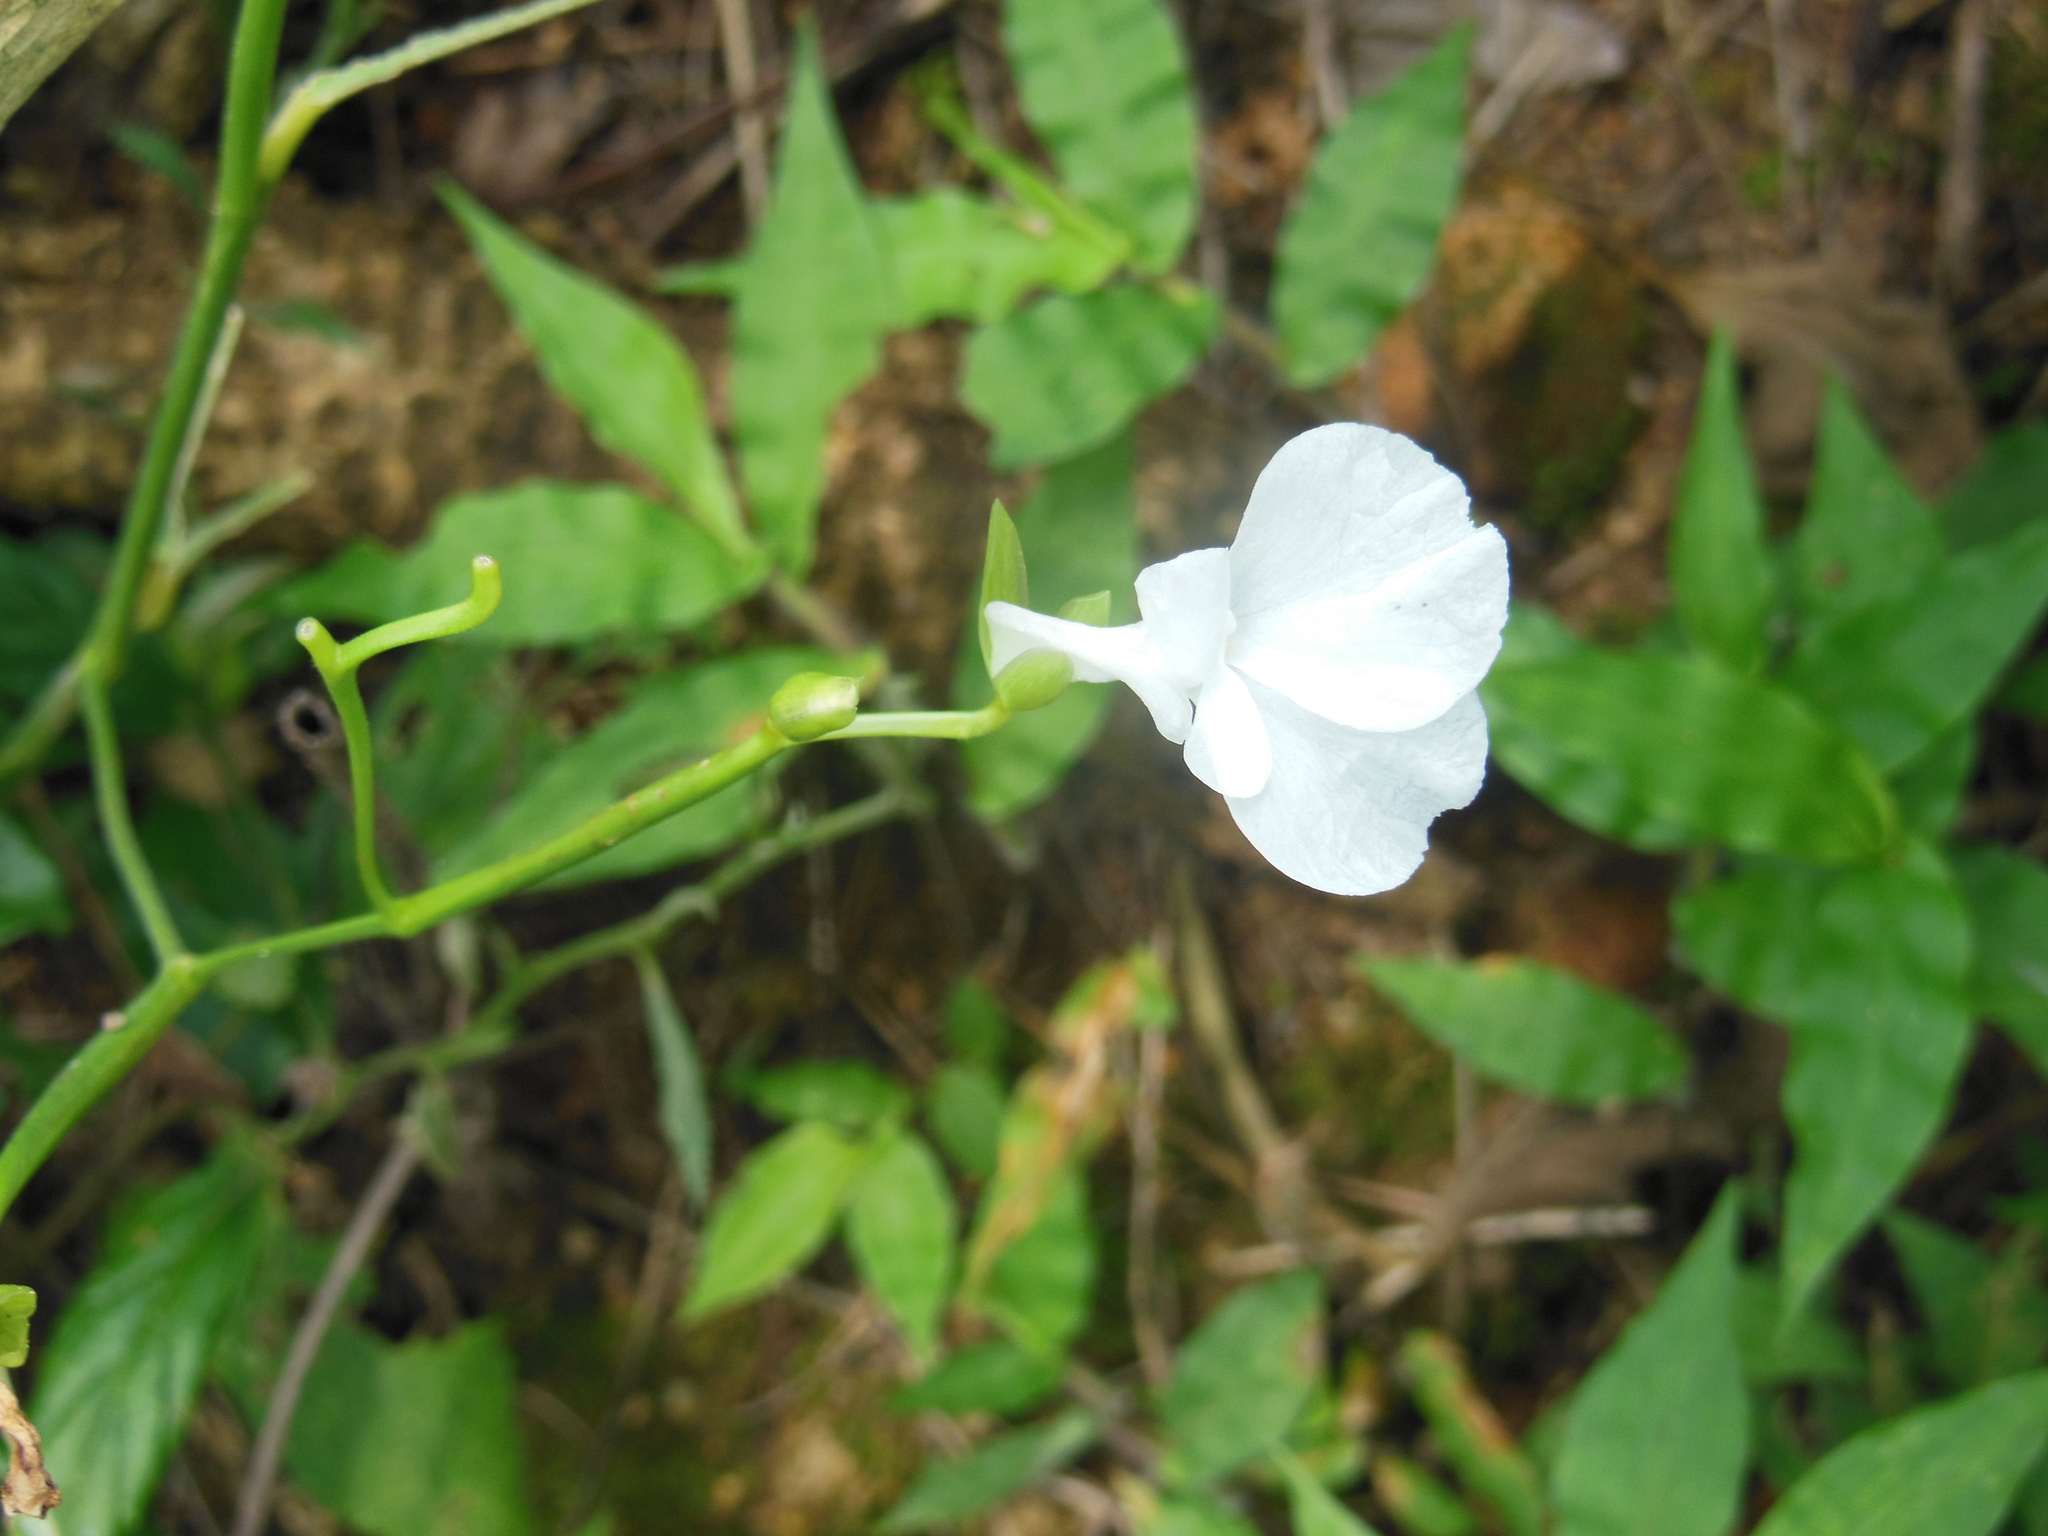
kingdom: Plantae
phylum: Tracheophyta
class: Liliopsida
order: Zingiberales
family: Marantaceae
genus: Maranta
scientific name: Maranta arundinacea
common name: Arrowroot
